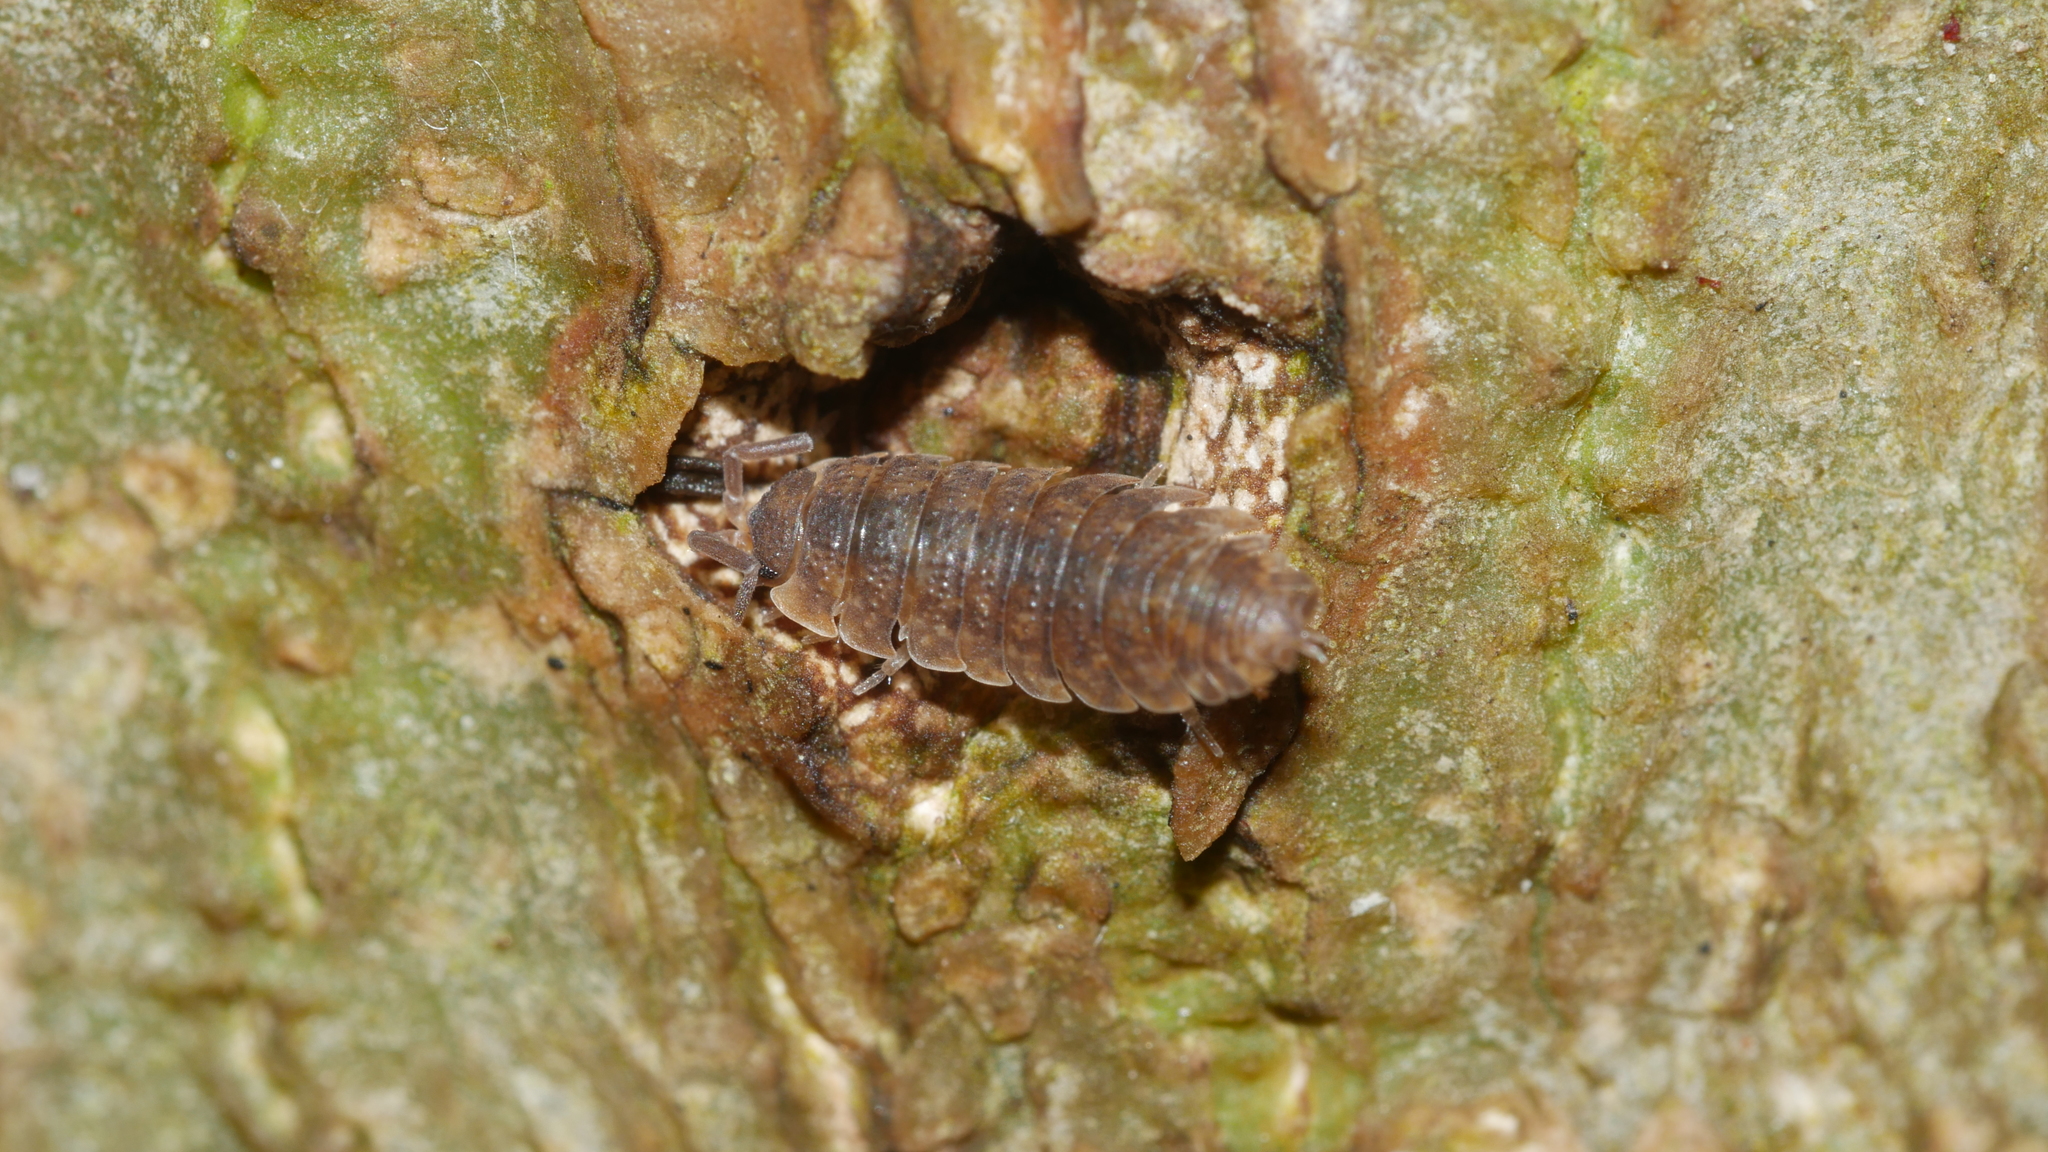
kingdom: Animalia
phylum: Arthropoda
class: Malacostraca
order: Isopoda
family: Porcellionidae
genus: Porcellio
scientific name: Porcellio scaber
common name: Common rough woodlouse
